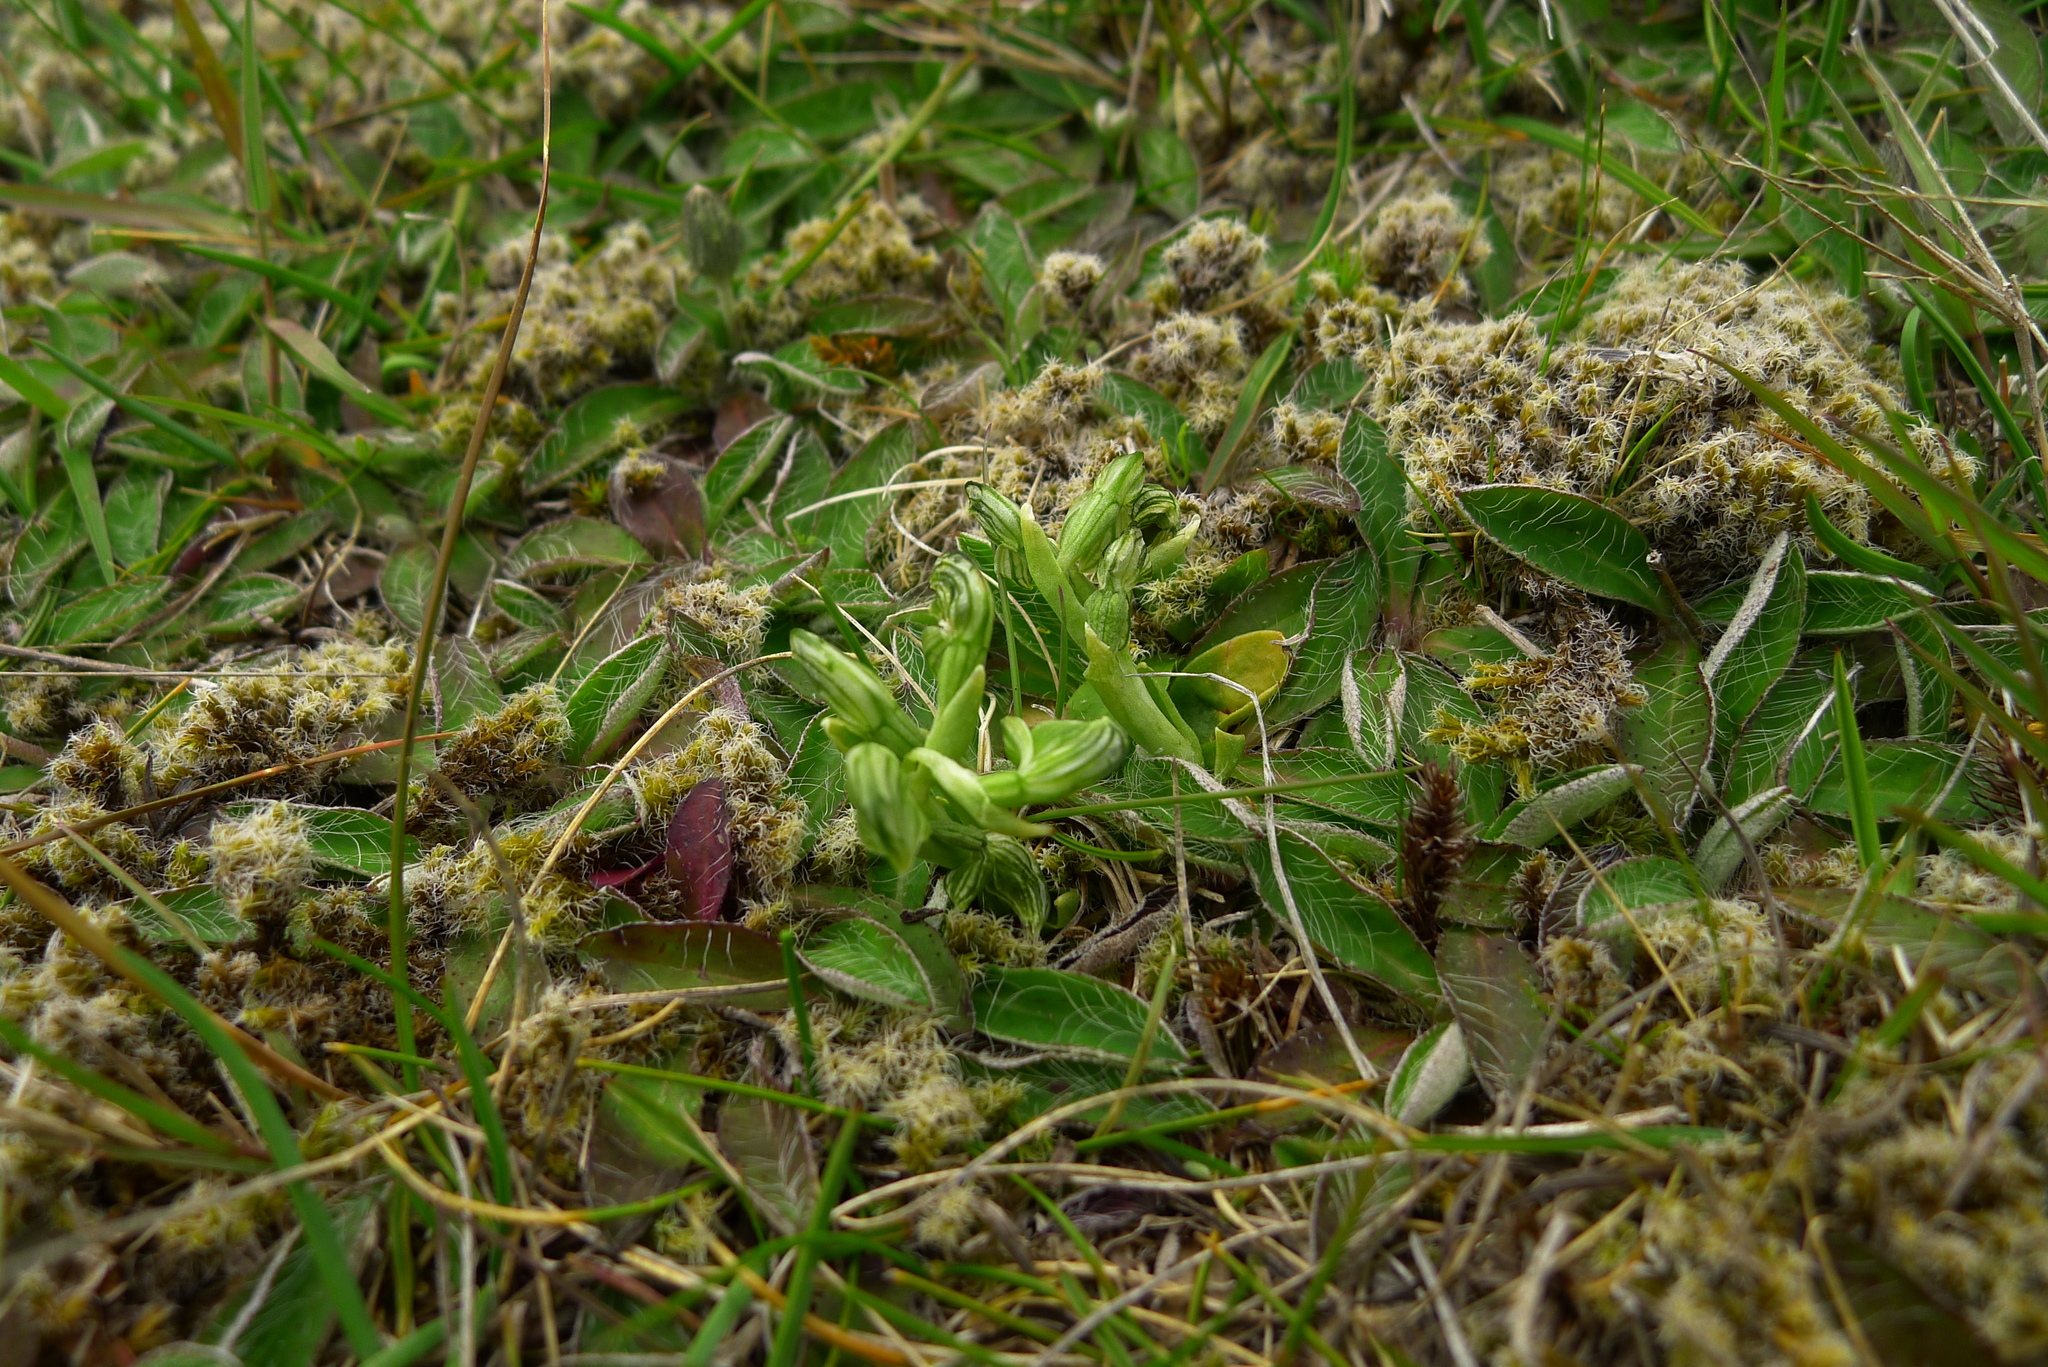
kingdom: Plantae
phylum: Tracheophyta
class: Liliopsida
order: Asparagales
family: Orchidaceae
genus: Pterostylis
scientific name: Pterostylis tanypoda
